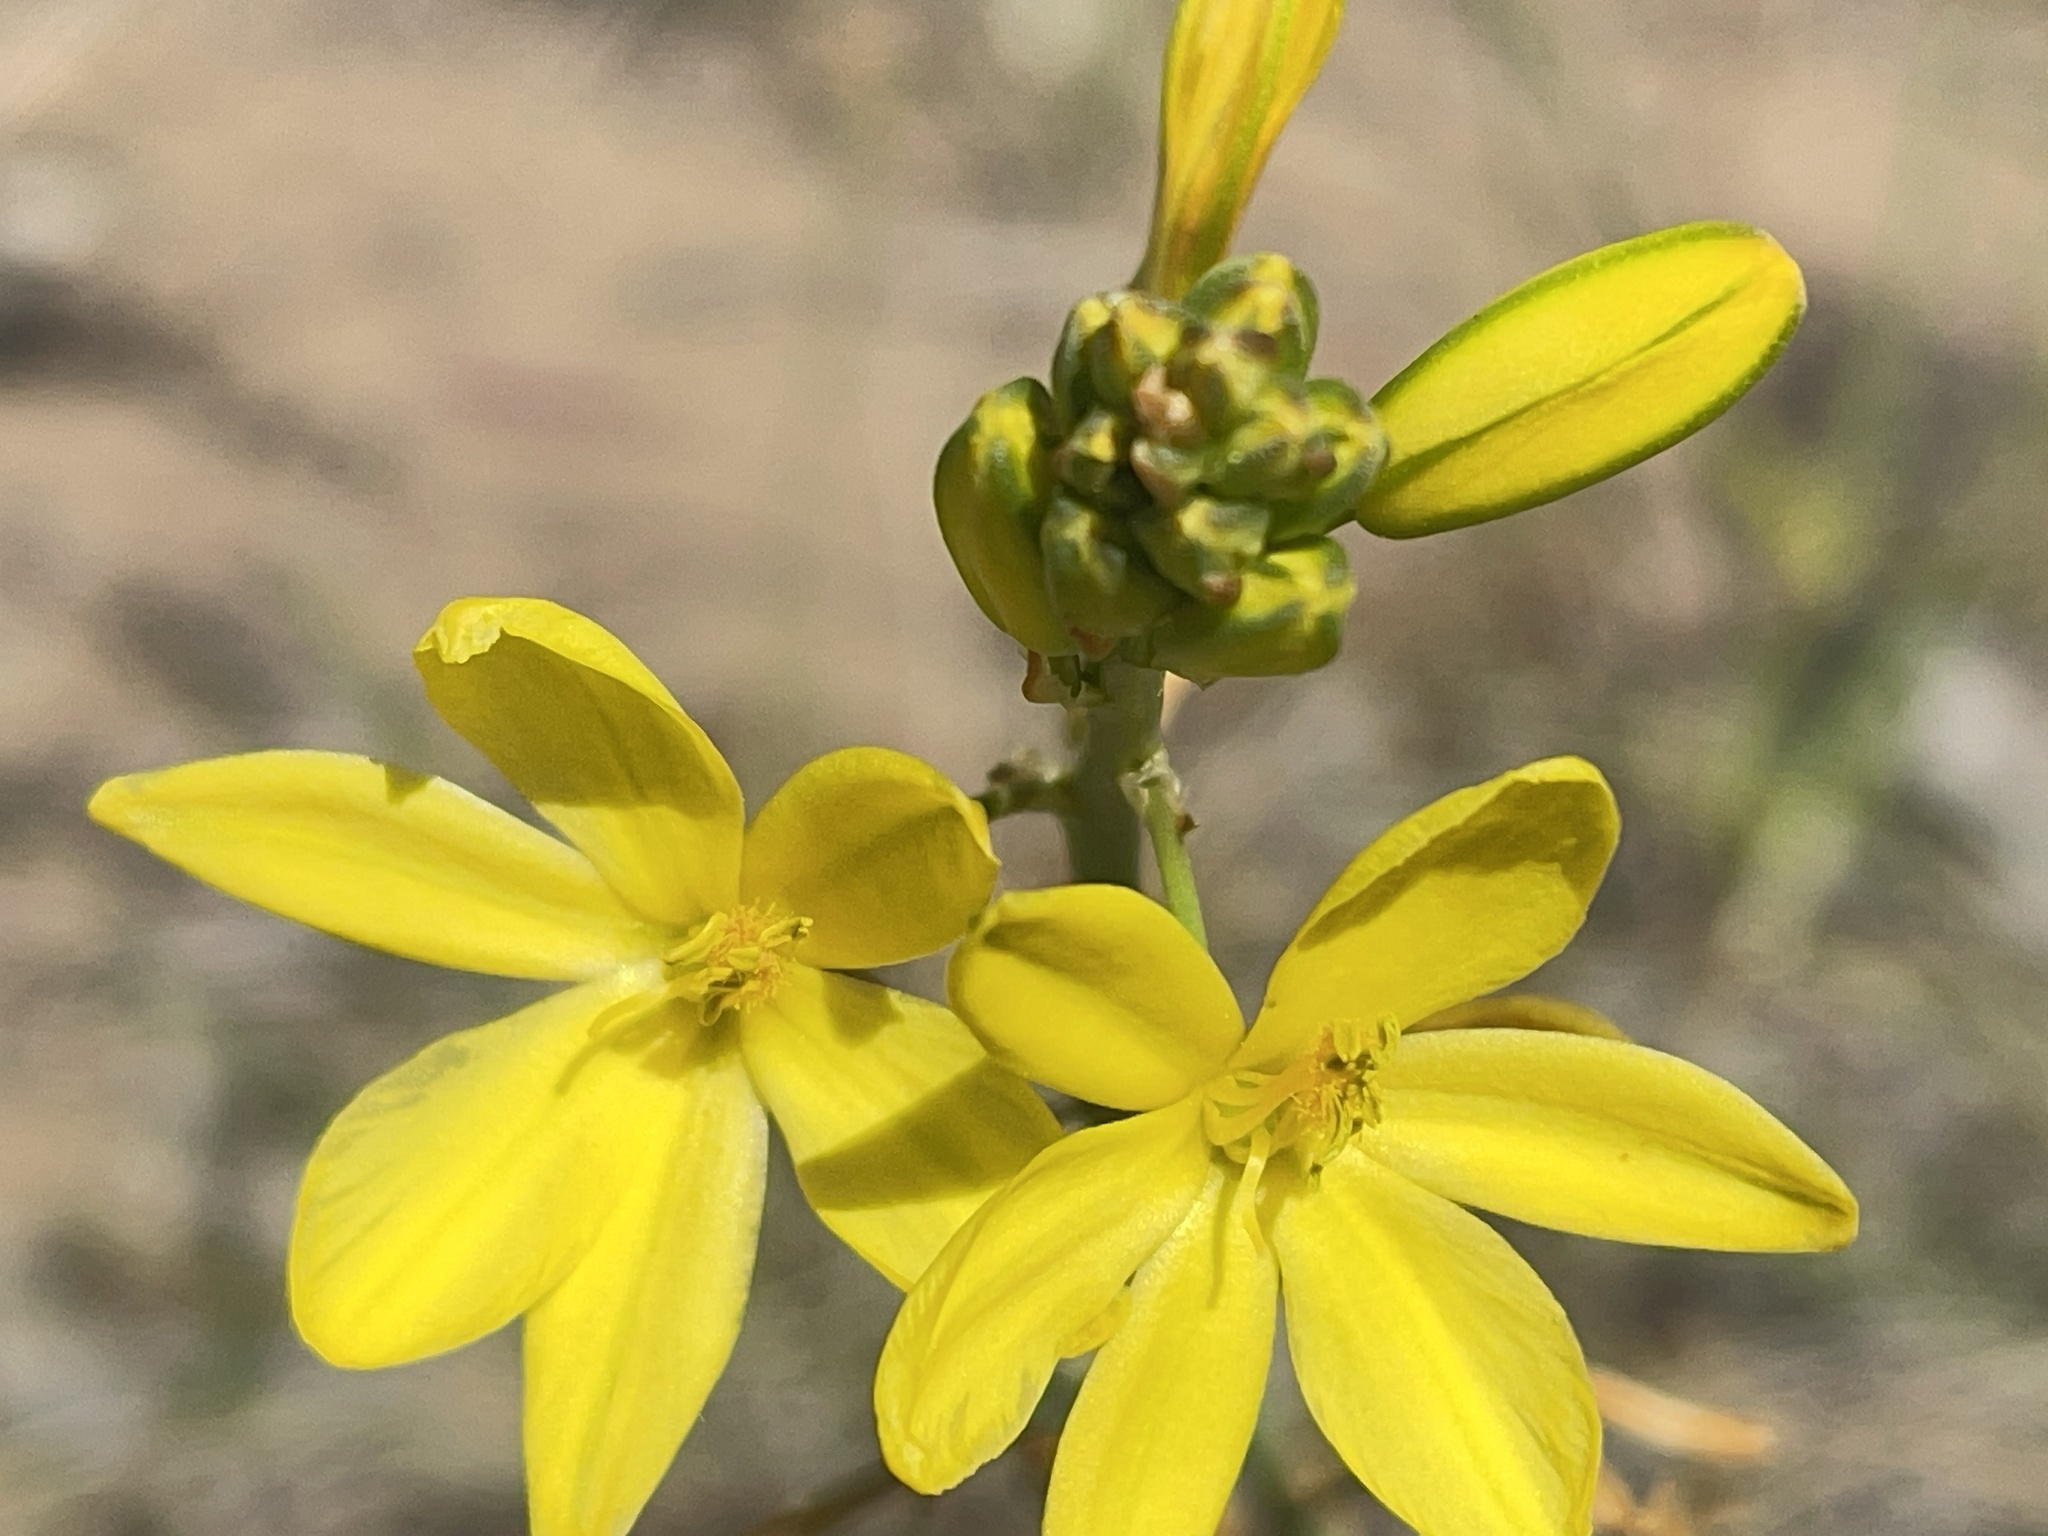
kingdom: Plantae
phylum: Tracheophyta
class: Liliopsida
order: Asparagales
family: Asphodelaceae
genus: Bulbine
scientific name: Bulbine bulbosa
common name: Golden-lily
